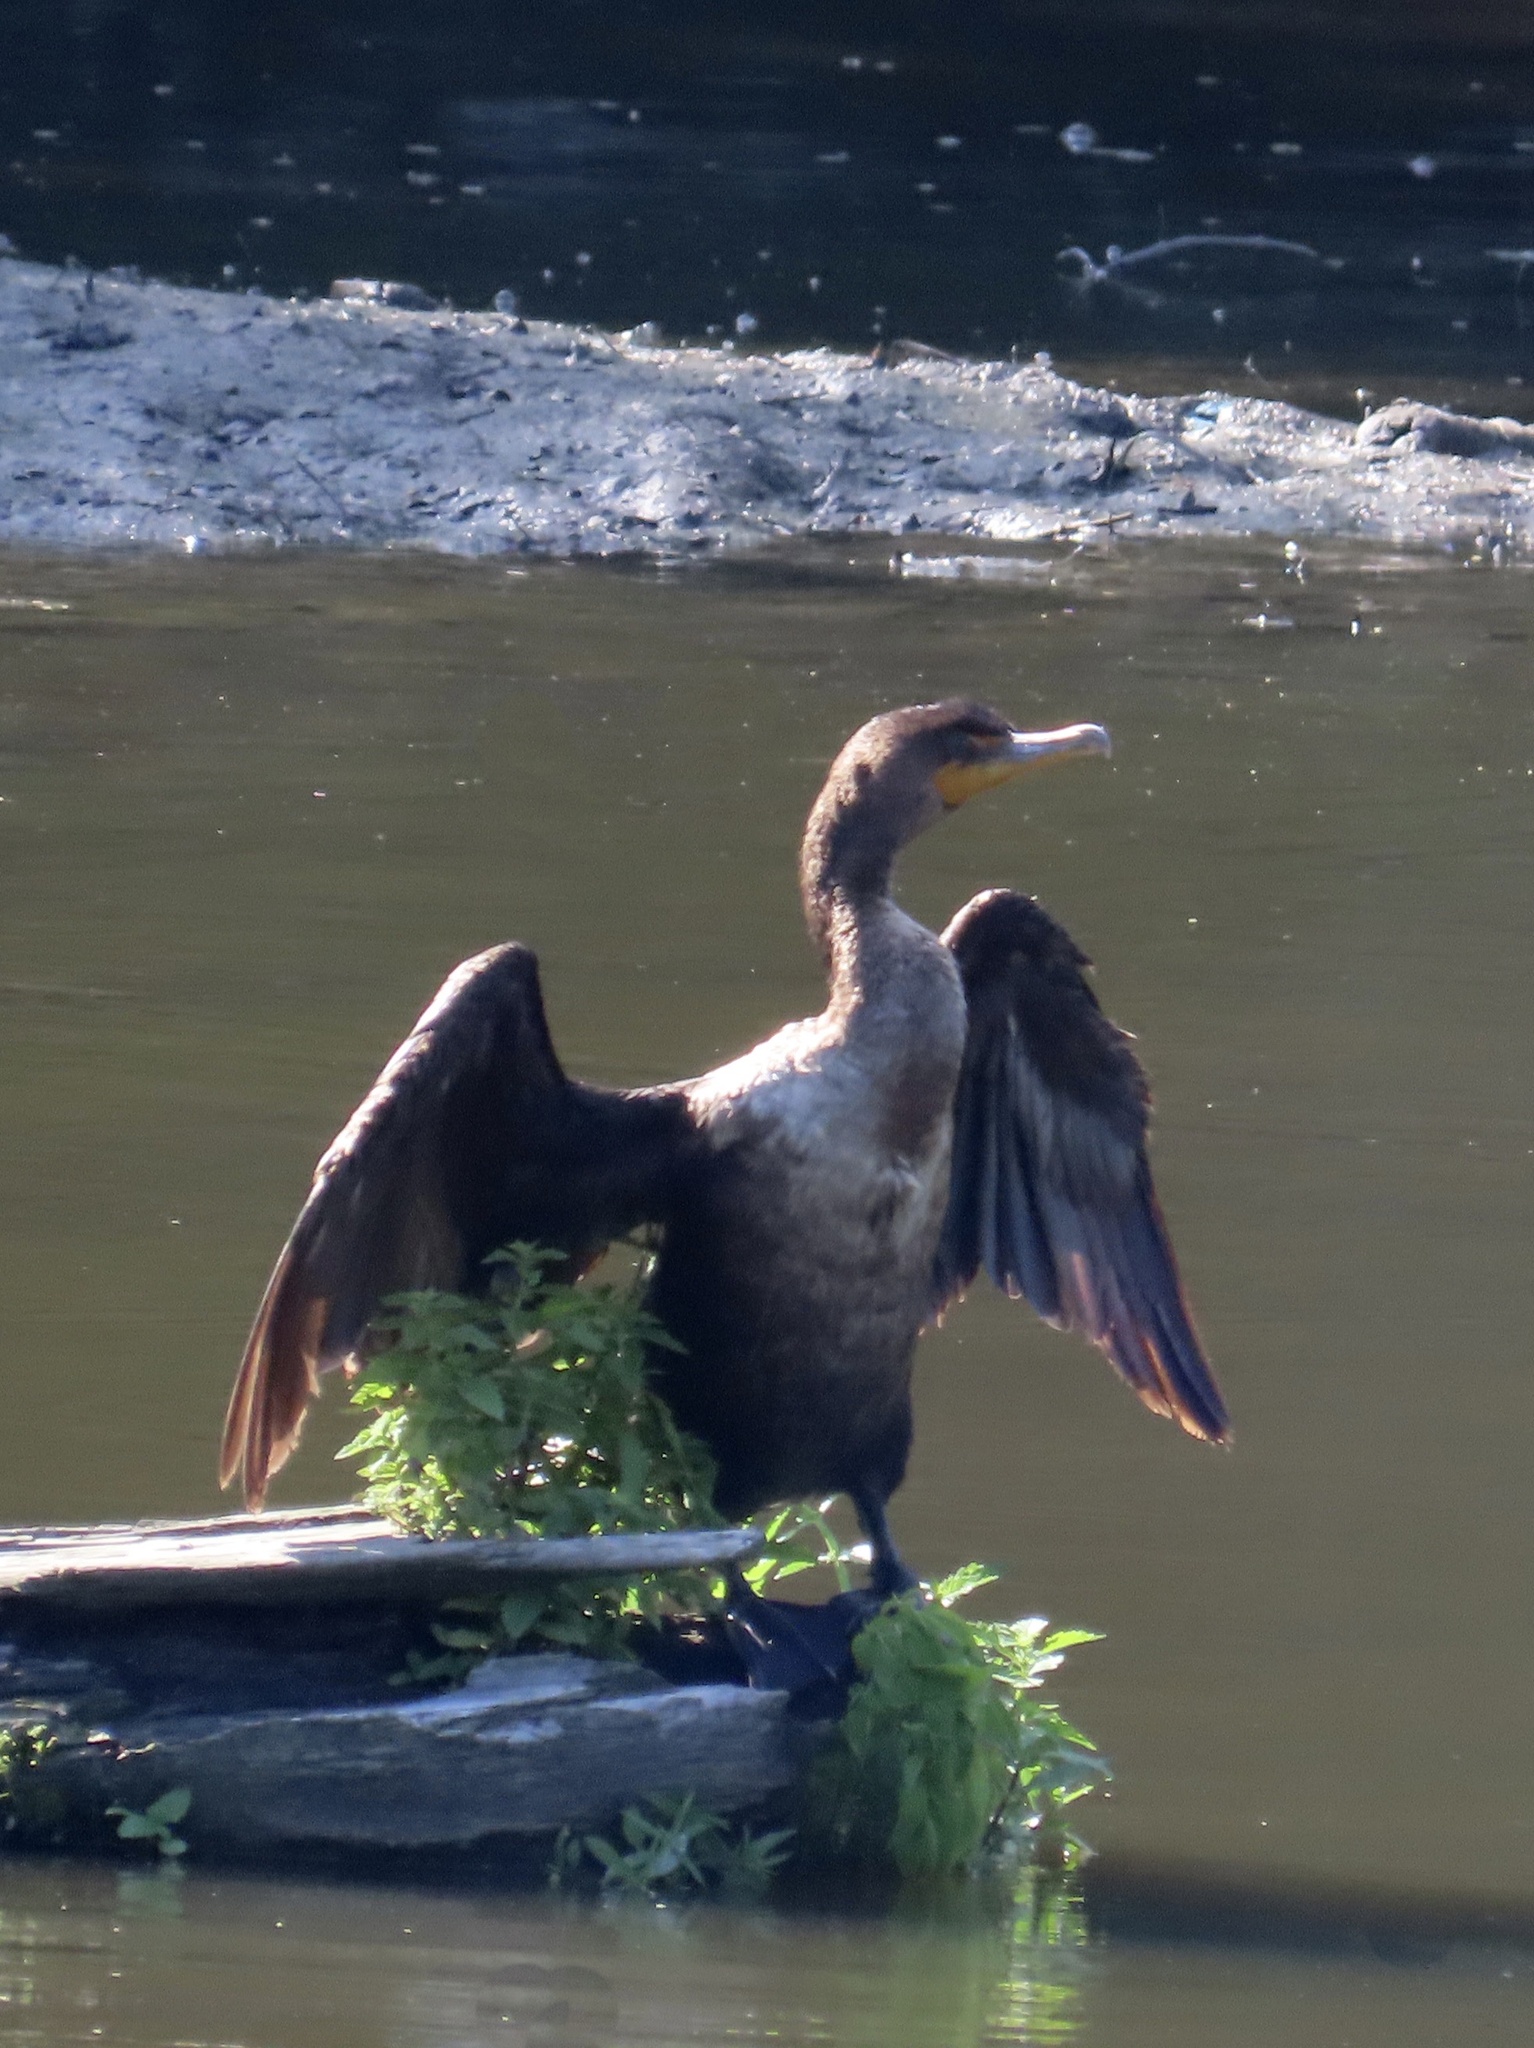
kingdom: Animalia
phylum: Chordata
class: Aves
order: Suliformes
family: Phalacrocoracidae
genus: Phalacrocorax
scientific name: Phalacrocorax auritus
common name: Double-crested cormorant
